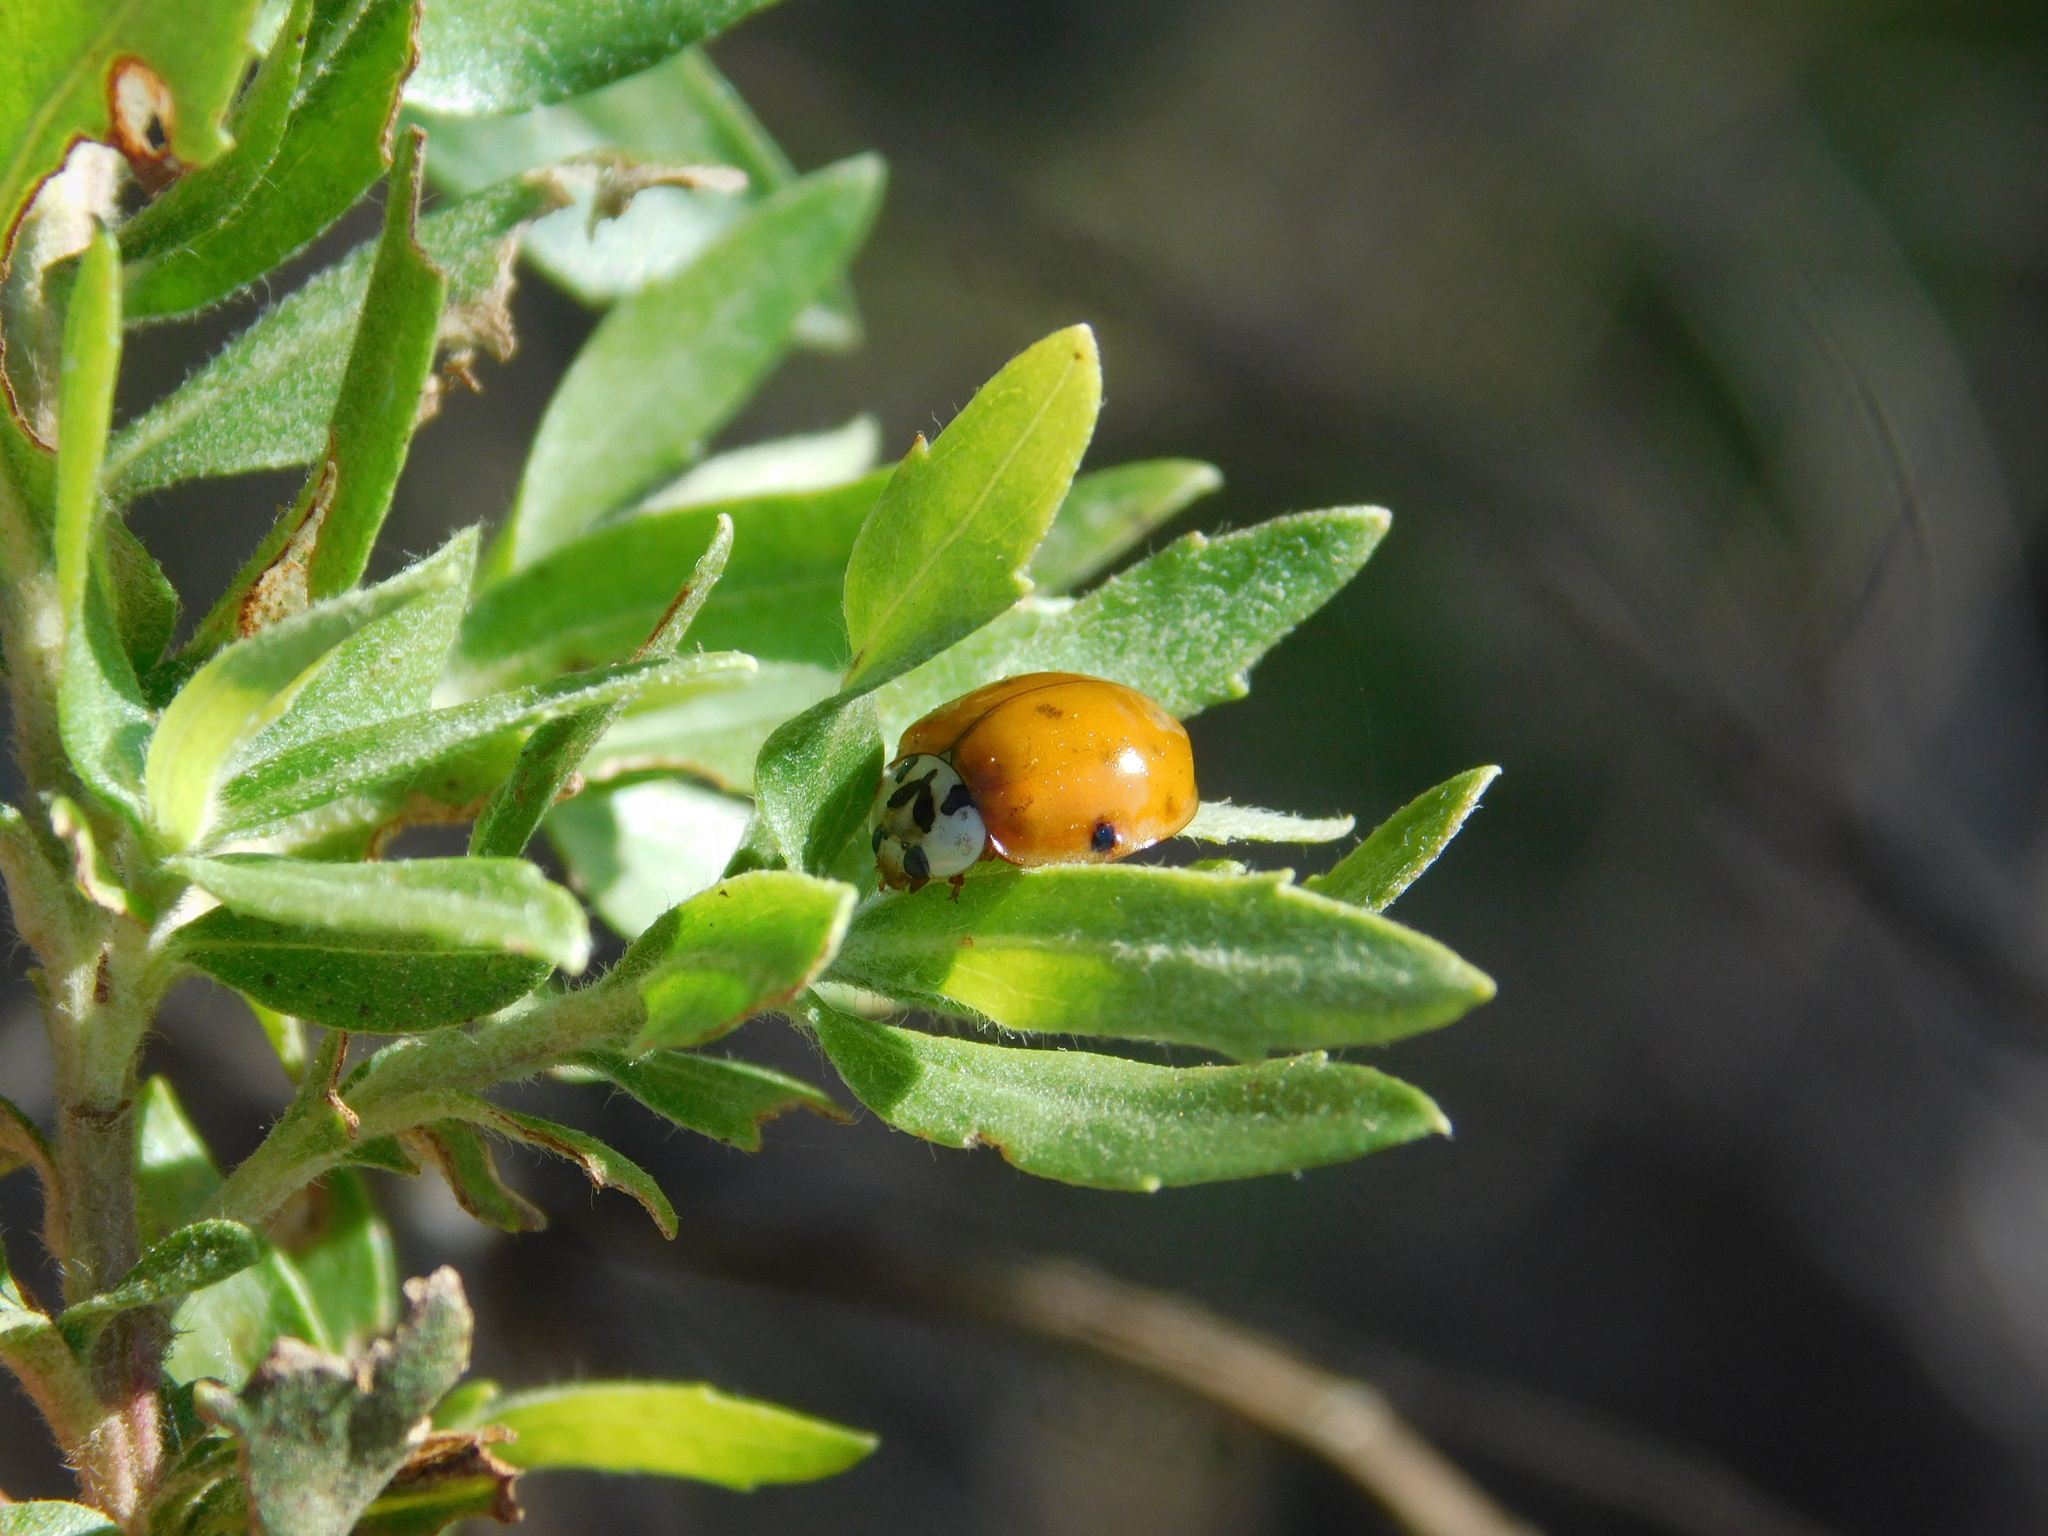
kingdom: Animalia
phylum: Arthropoda
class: Insecta
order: Coleoptera
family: Coccinellidae
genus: Harmonia
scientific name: Harmonia axyridis
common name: Harlequin ladybird
